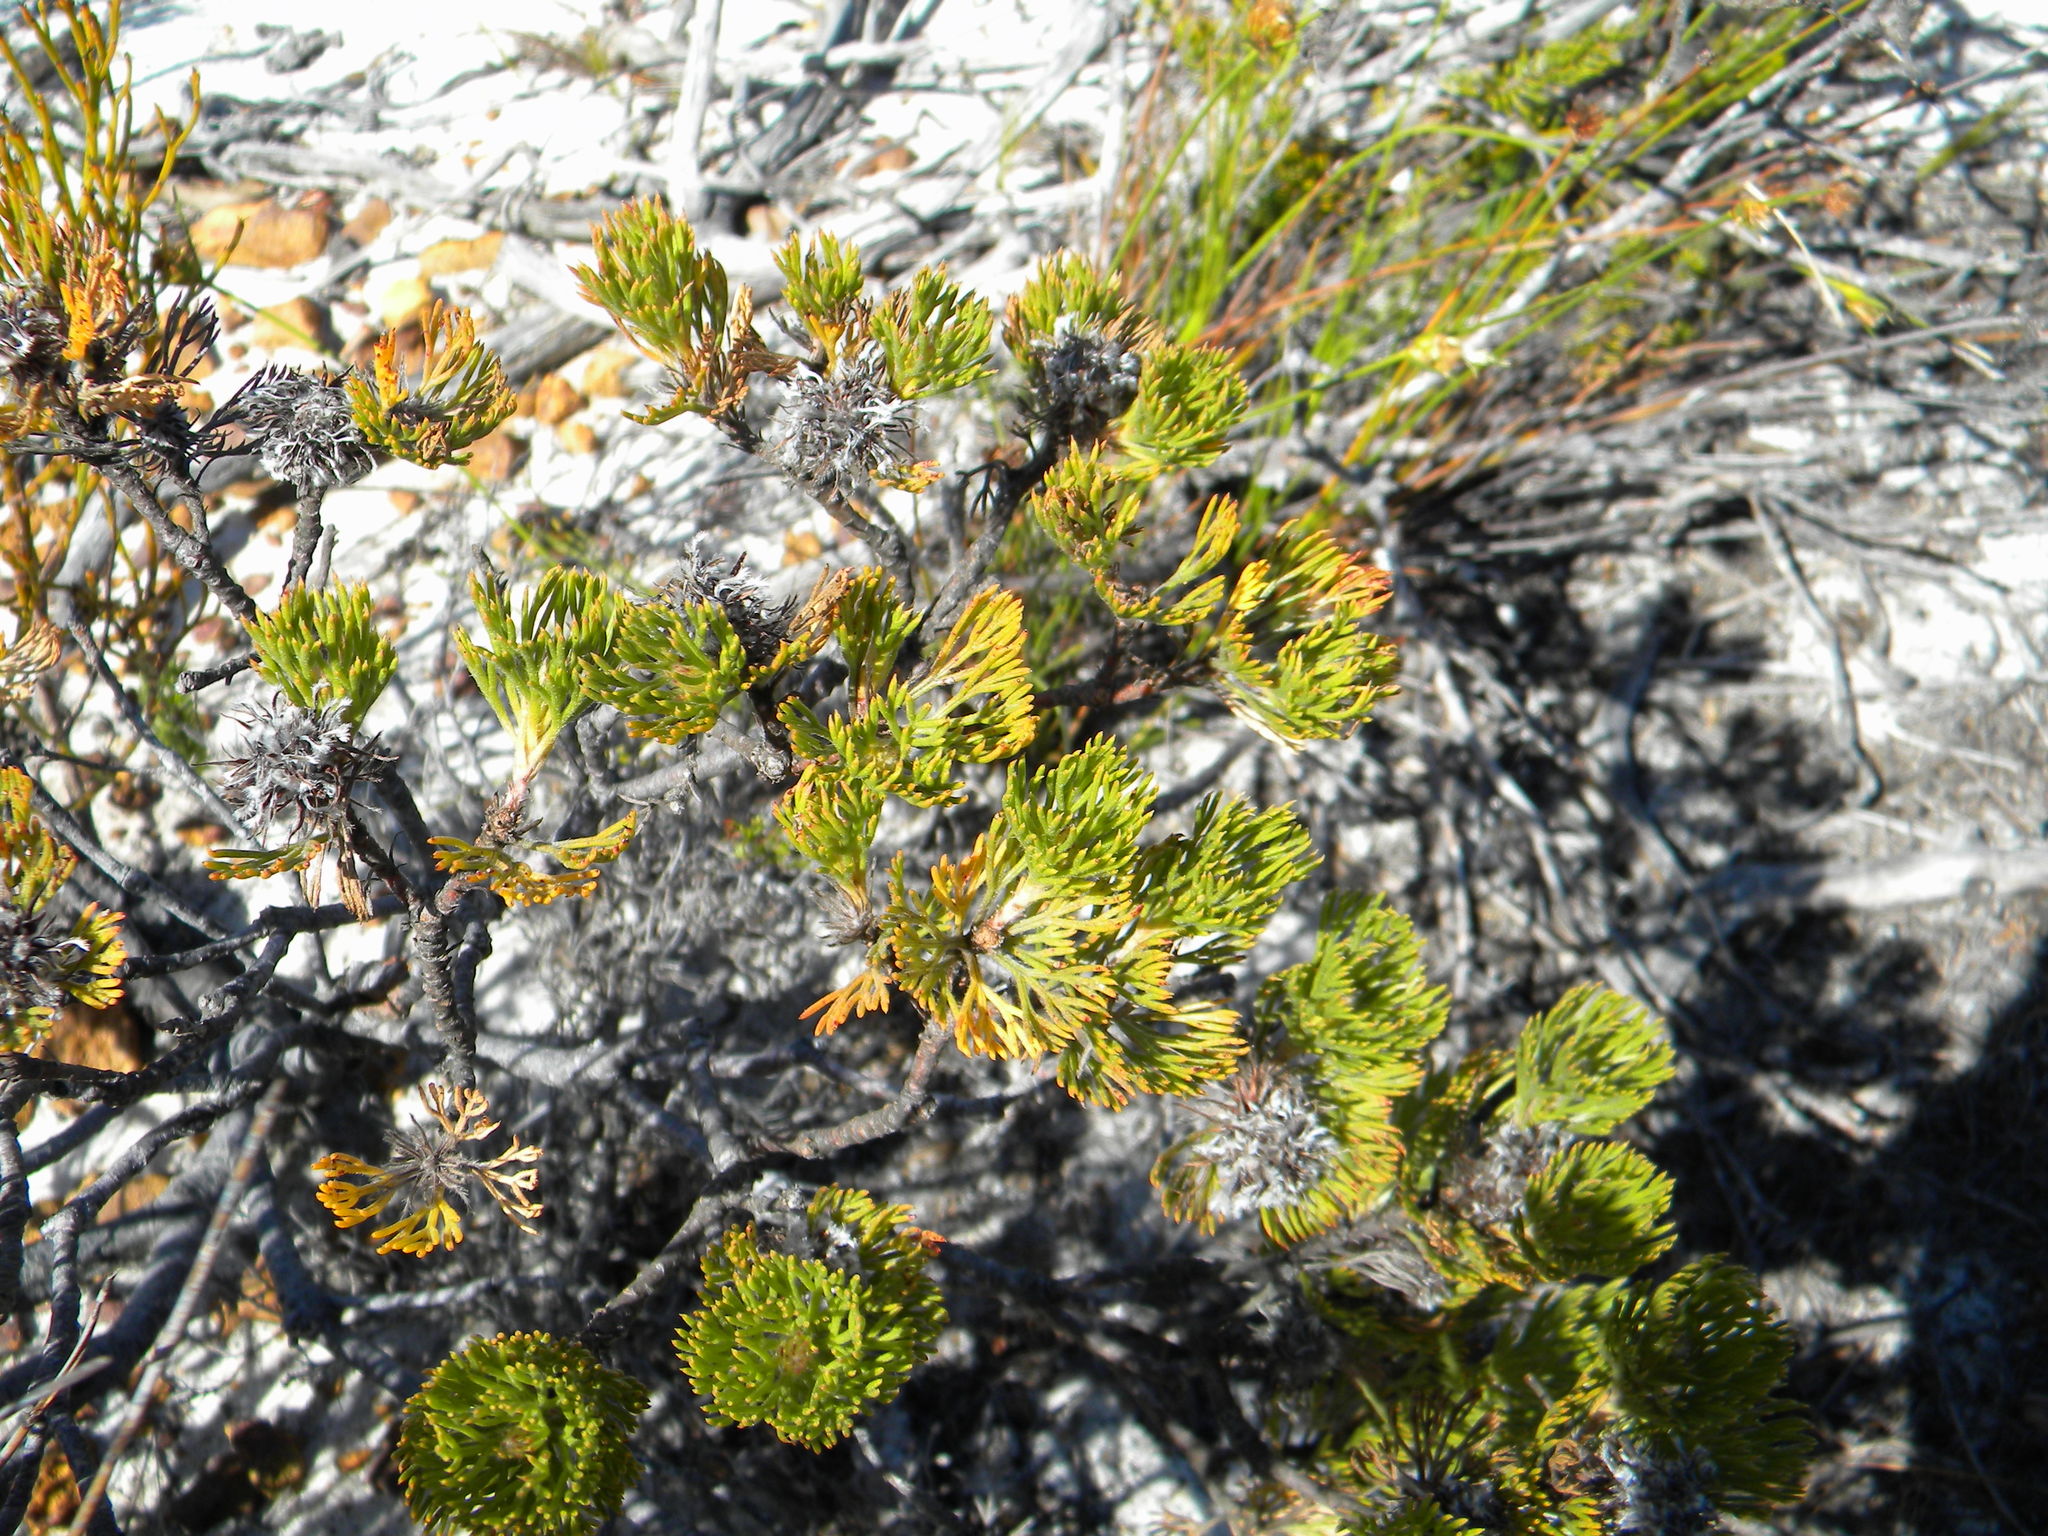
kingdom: Plantae
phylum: Tracheophyta
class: Magnoliopsida
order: Proteales
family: Proteaceae
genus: Serruria
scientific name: Serruria villosa
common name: Golden spiderhead
